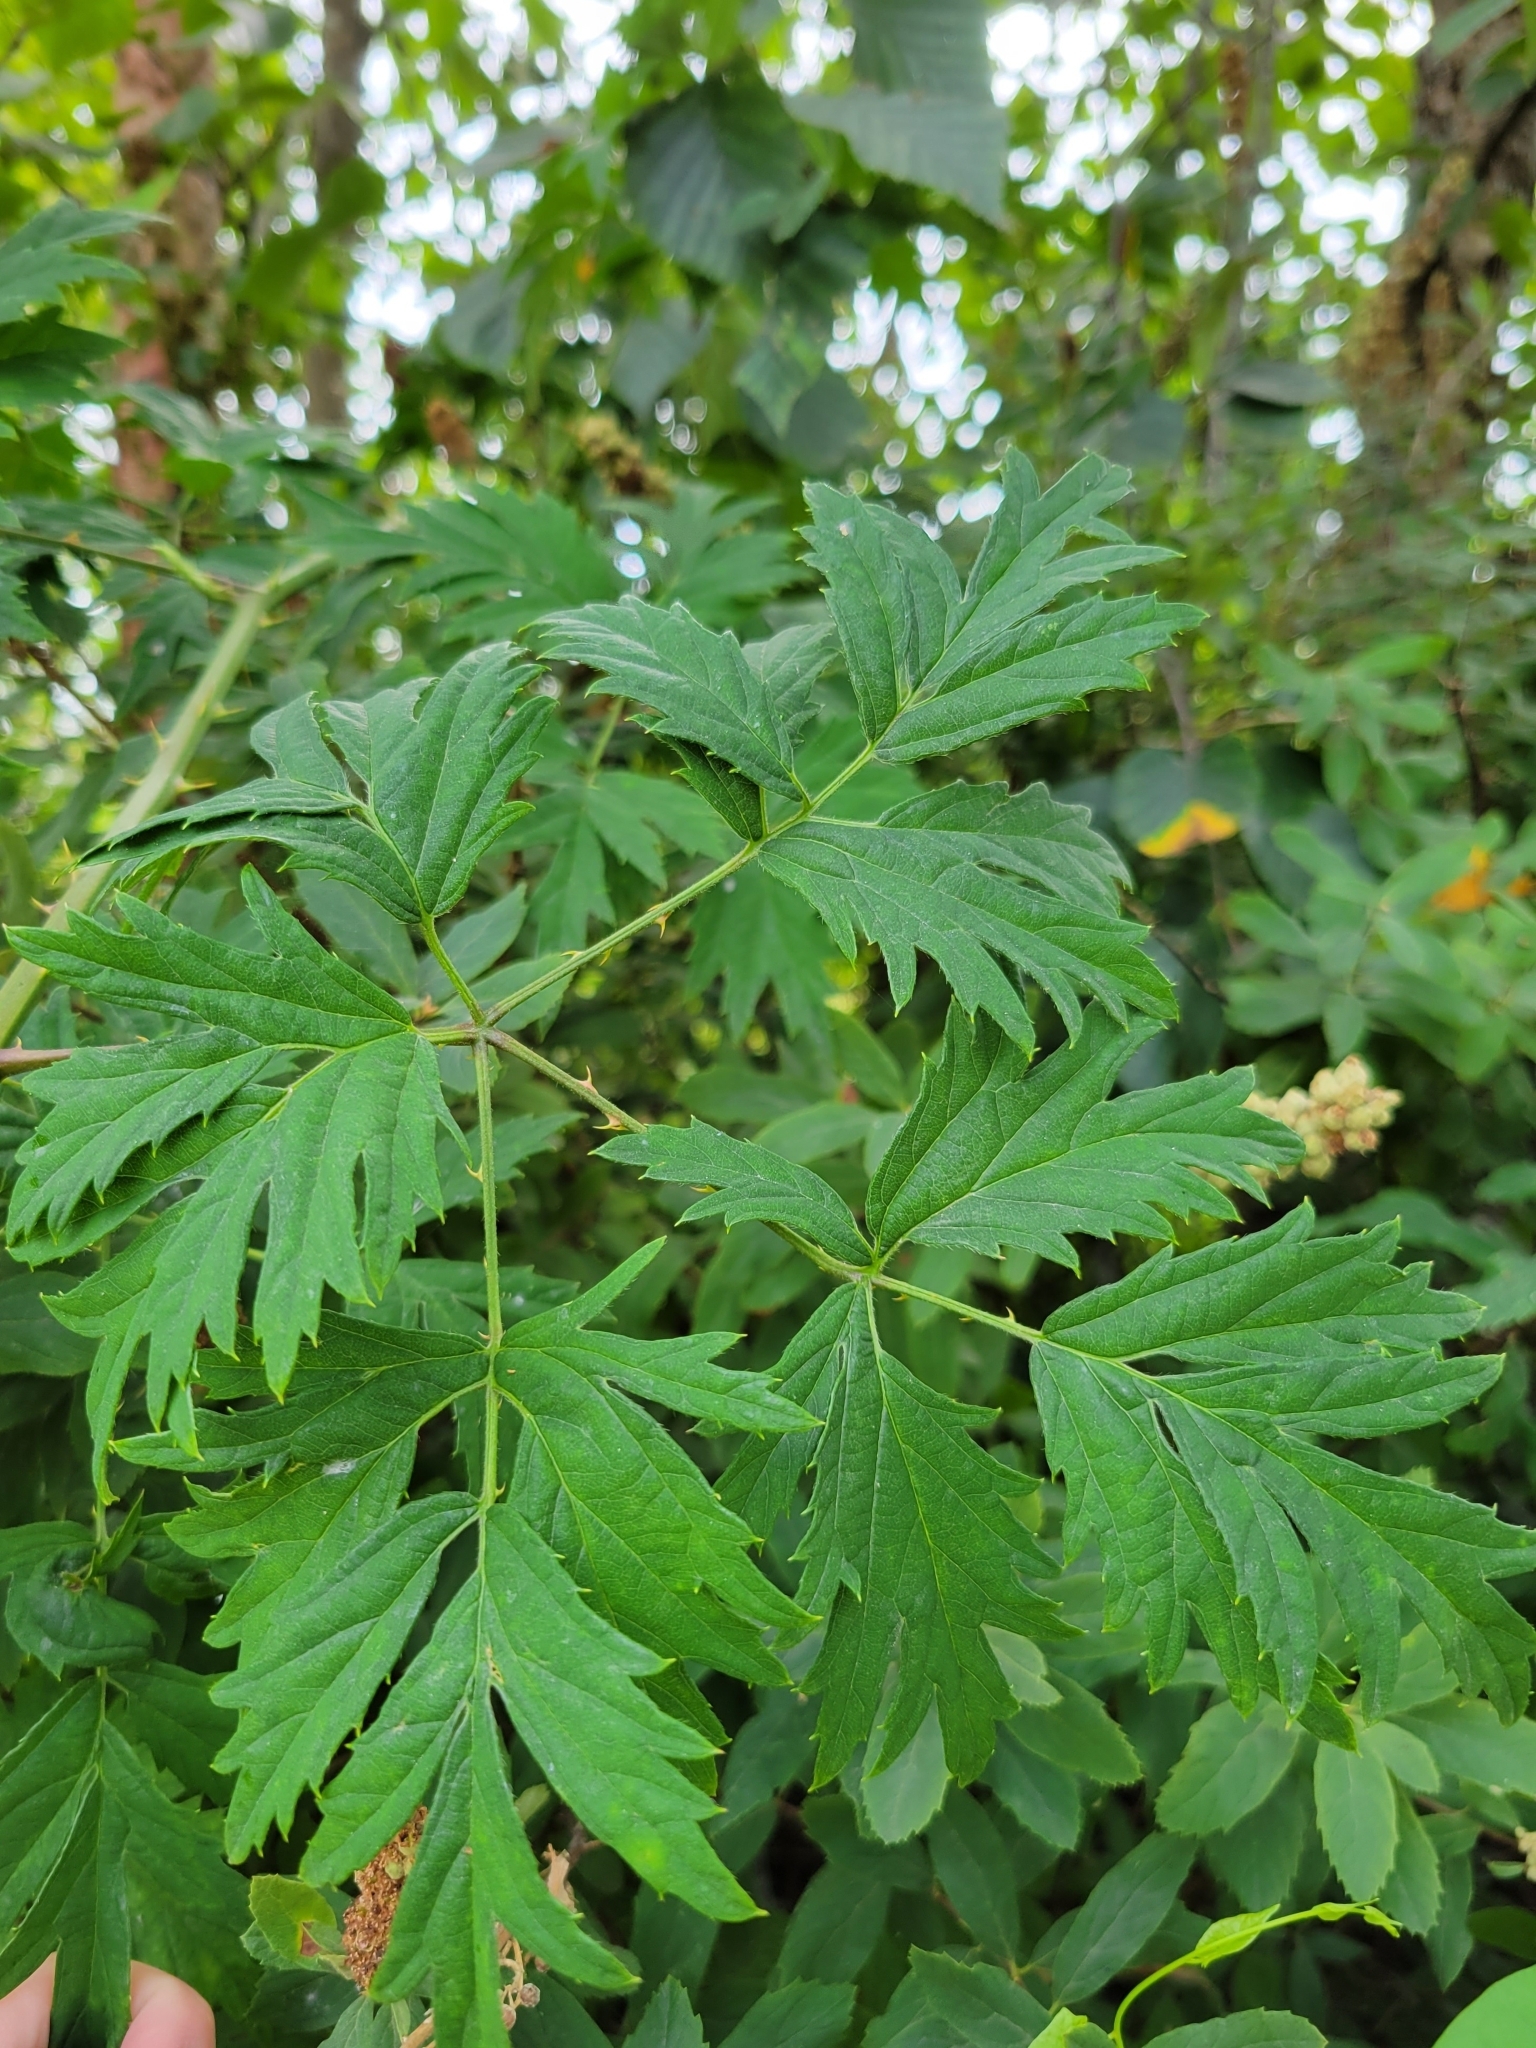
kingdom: Plantae
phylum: Tracheophyta
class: Magnoliopsida
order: Rosales
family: Rosaceae
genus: Rubus
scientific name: Rubus laciniatus
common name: Evergreen blackberry
